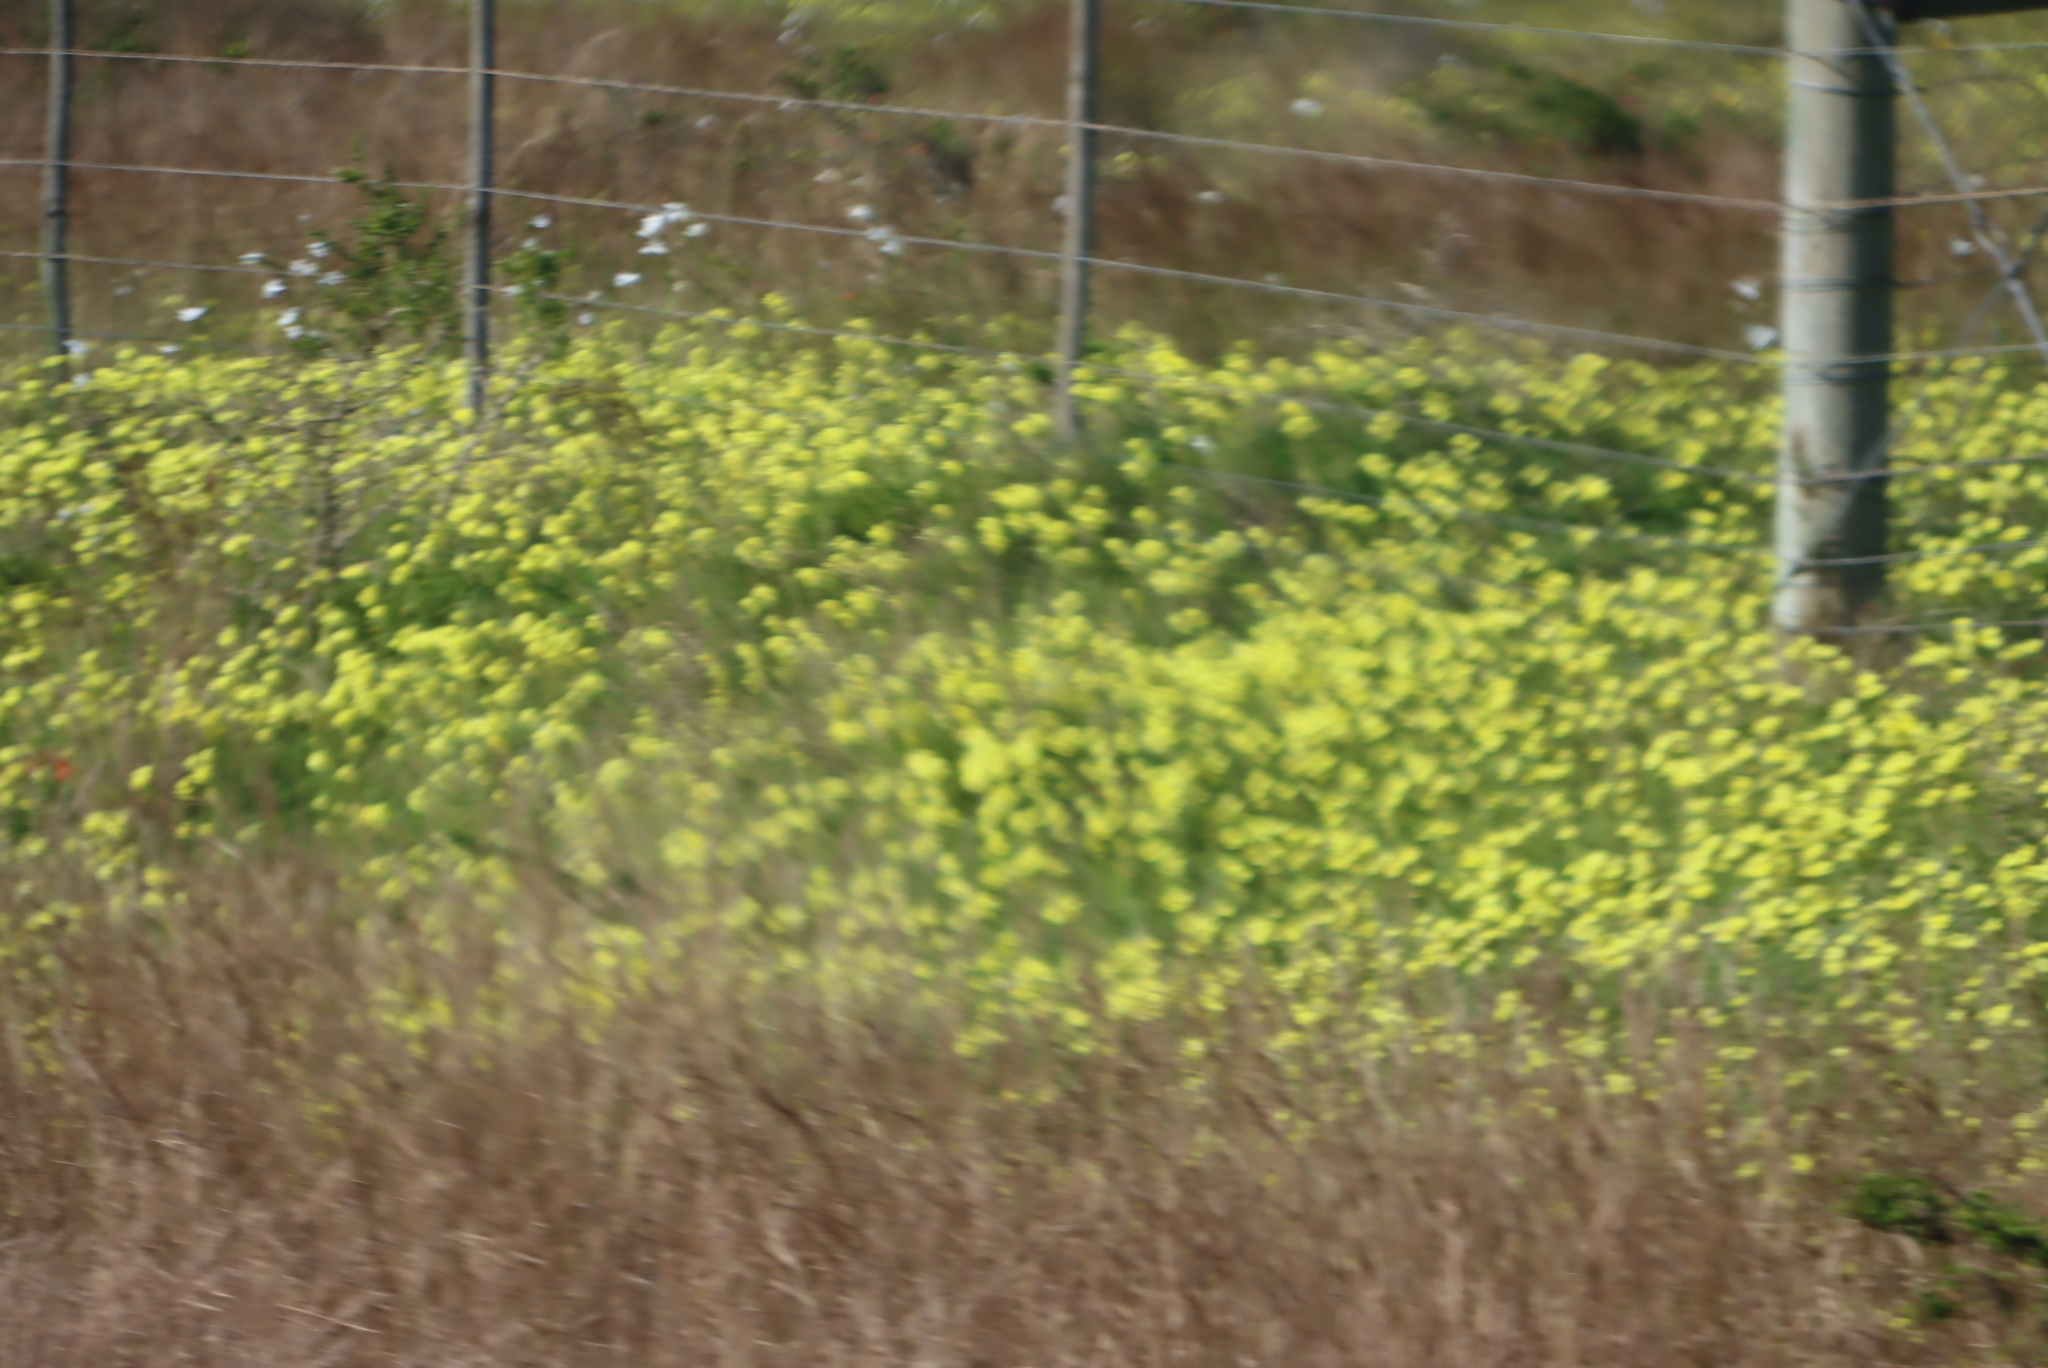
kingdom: Plantae
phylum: Tracheophyta
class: Magnoliopsida
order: Oxalidales
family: Oxalidaceae
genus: Oxalis
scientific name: Oxalis pes-caprae
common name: Bermuda-buttercup
